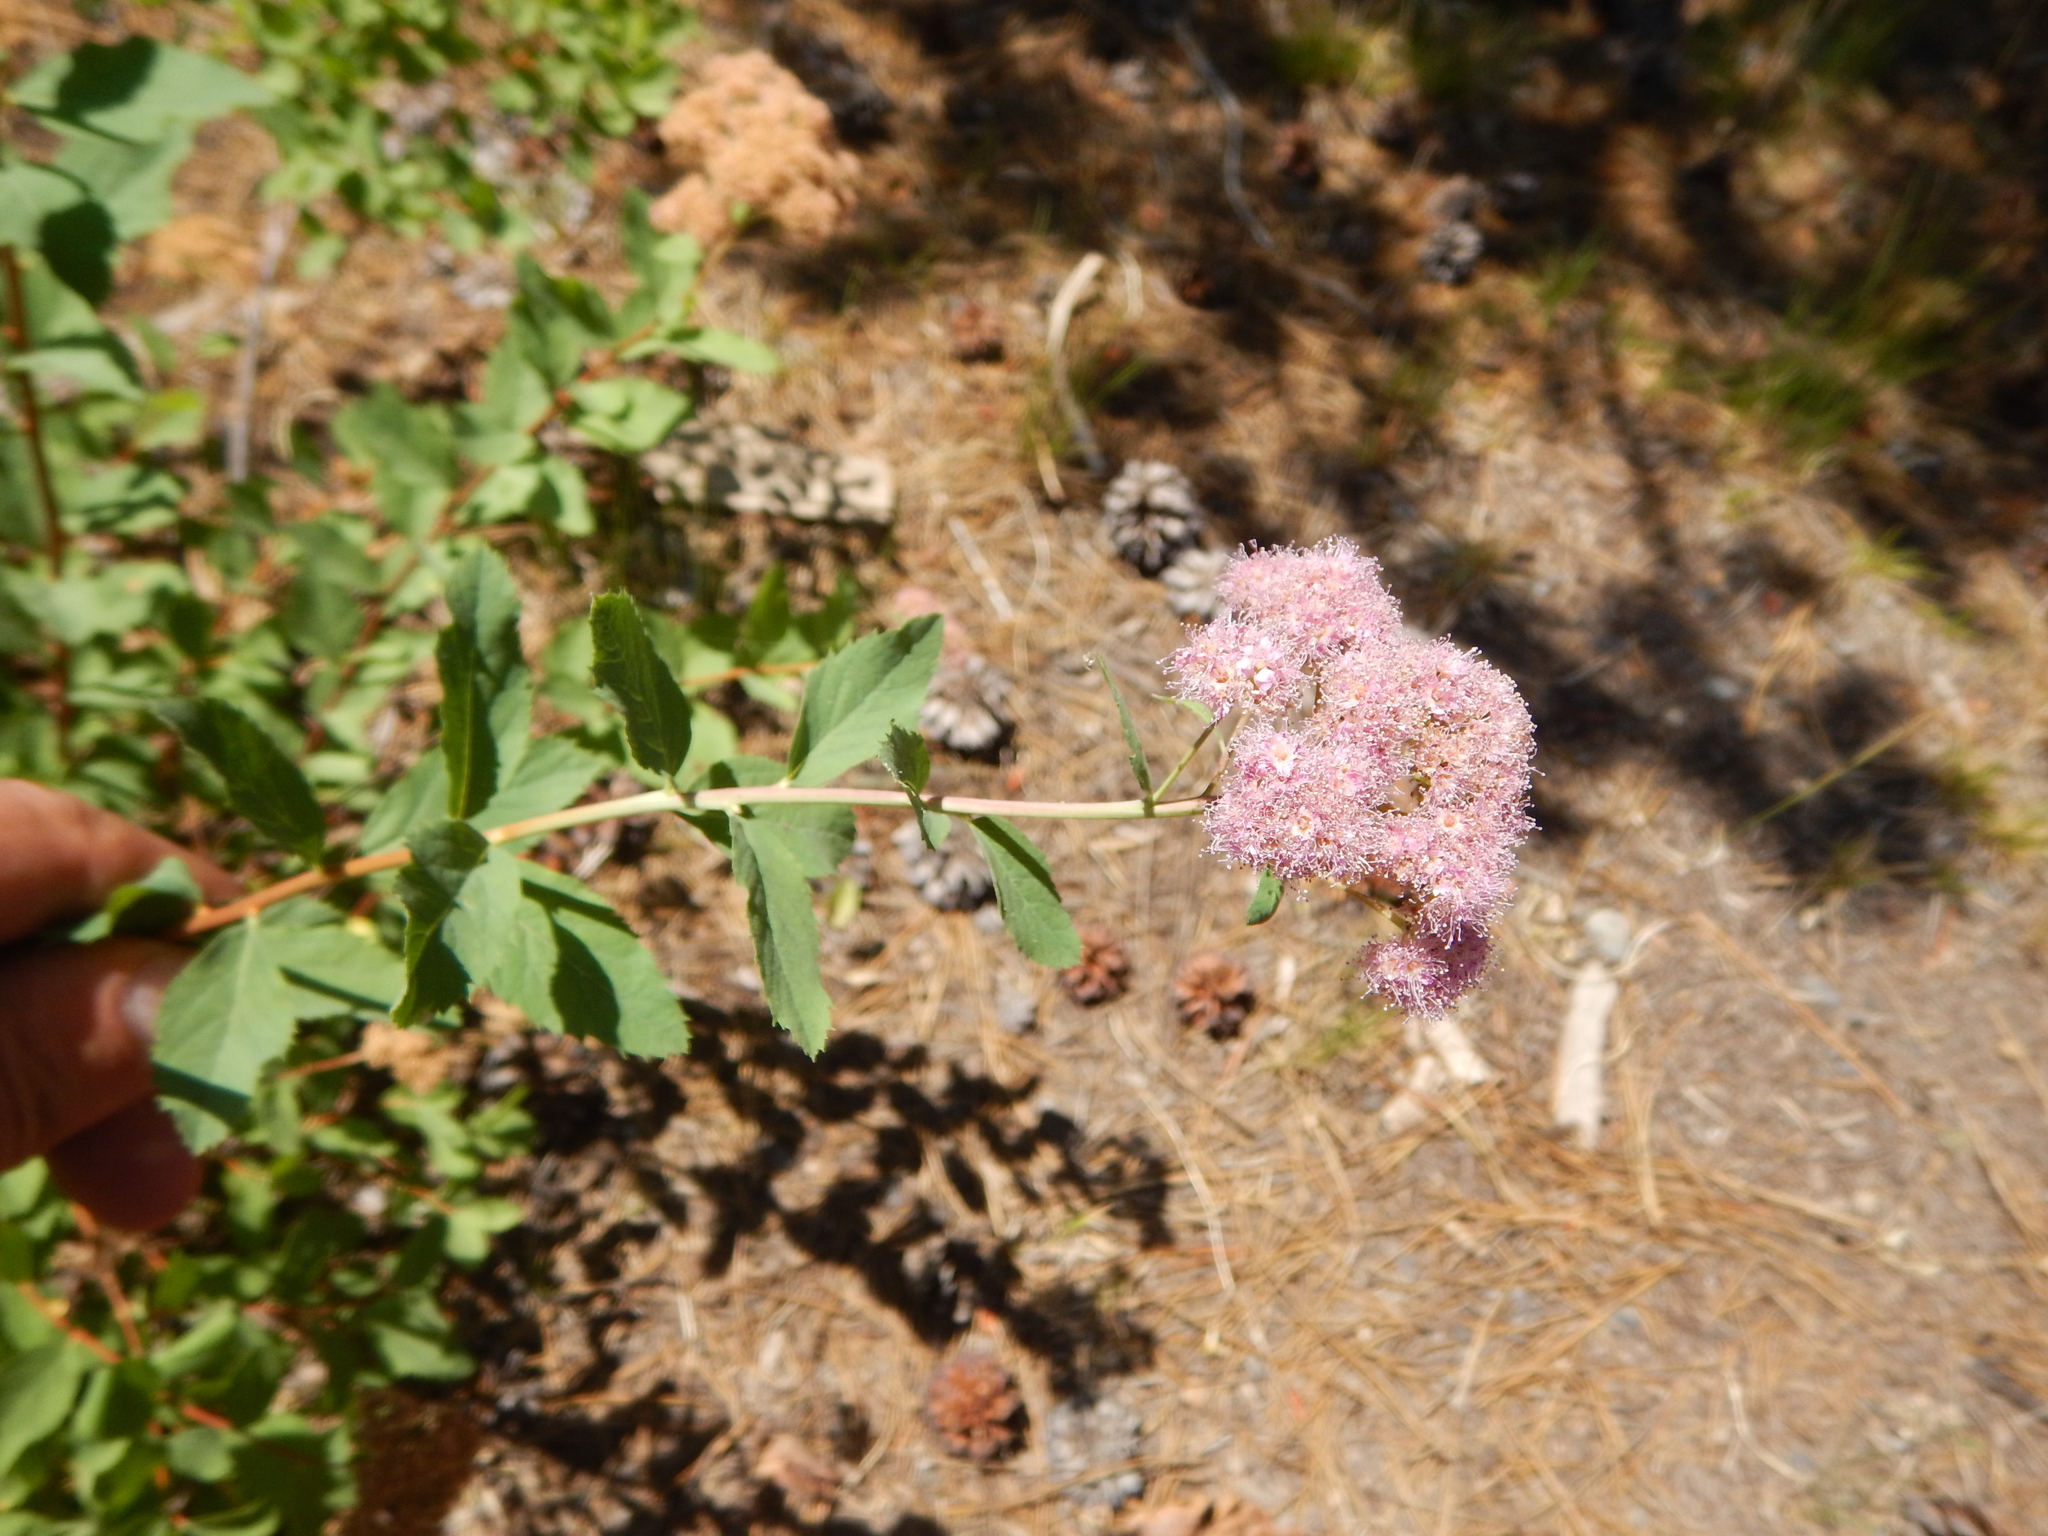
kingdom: Plantae
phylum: Tracheophyta
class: Magnoliopsida
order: Rosales
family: Rosaceae
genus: Spiraea
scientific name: Spiraea splendens
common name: Subalpine meadowsweet
